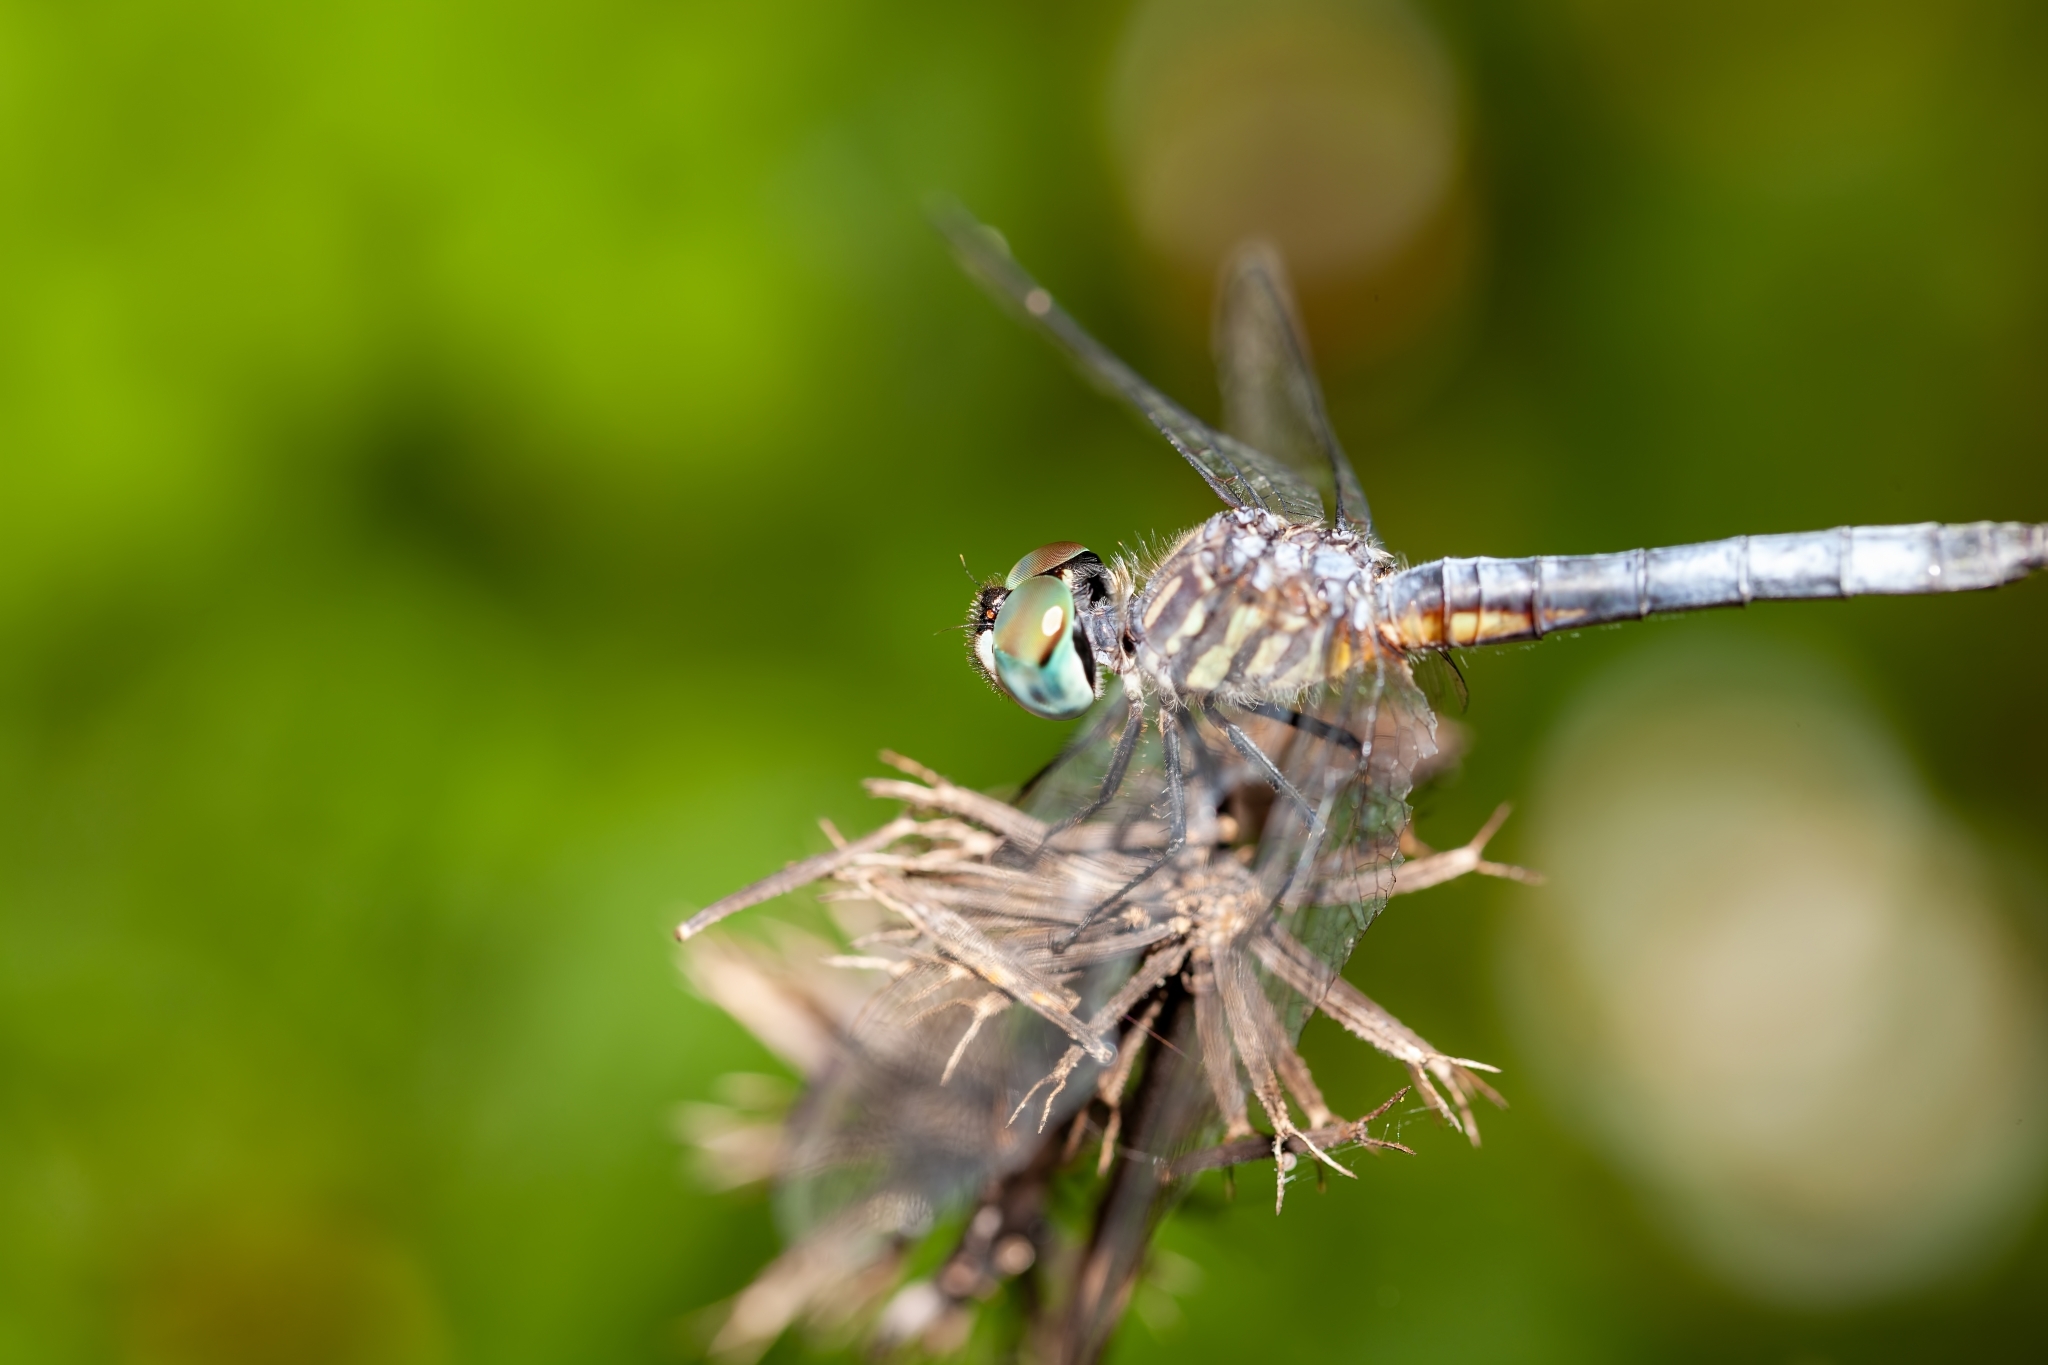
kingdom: Animalia
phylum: Arthropoda
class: Insecta
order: Odonata
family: Libellulidae
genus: Pachydiplax
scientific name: Pachydiplax longipennis
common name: Blue dasher
